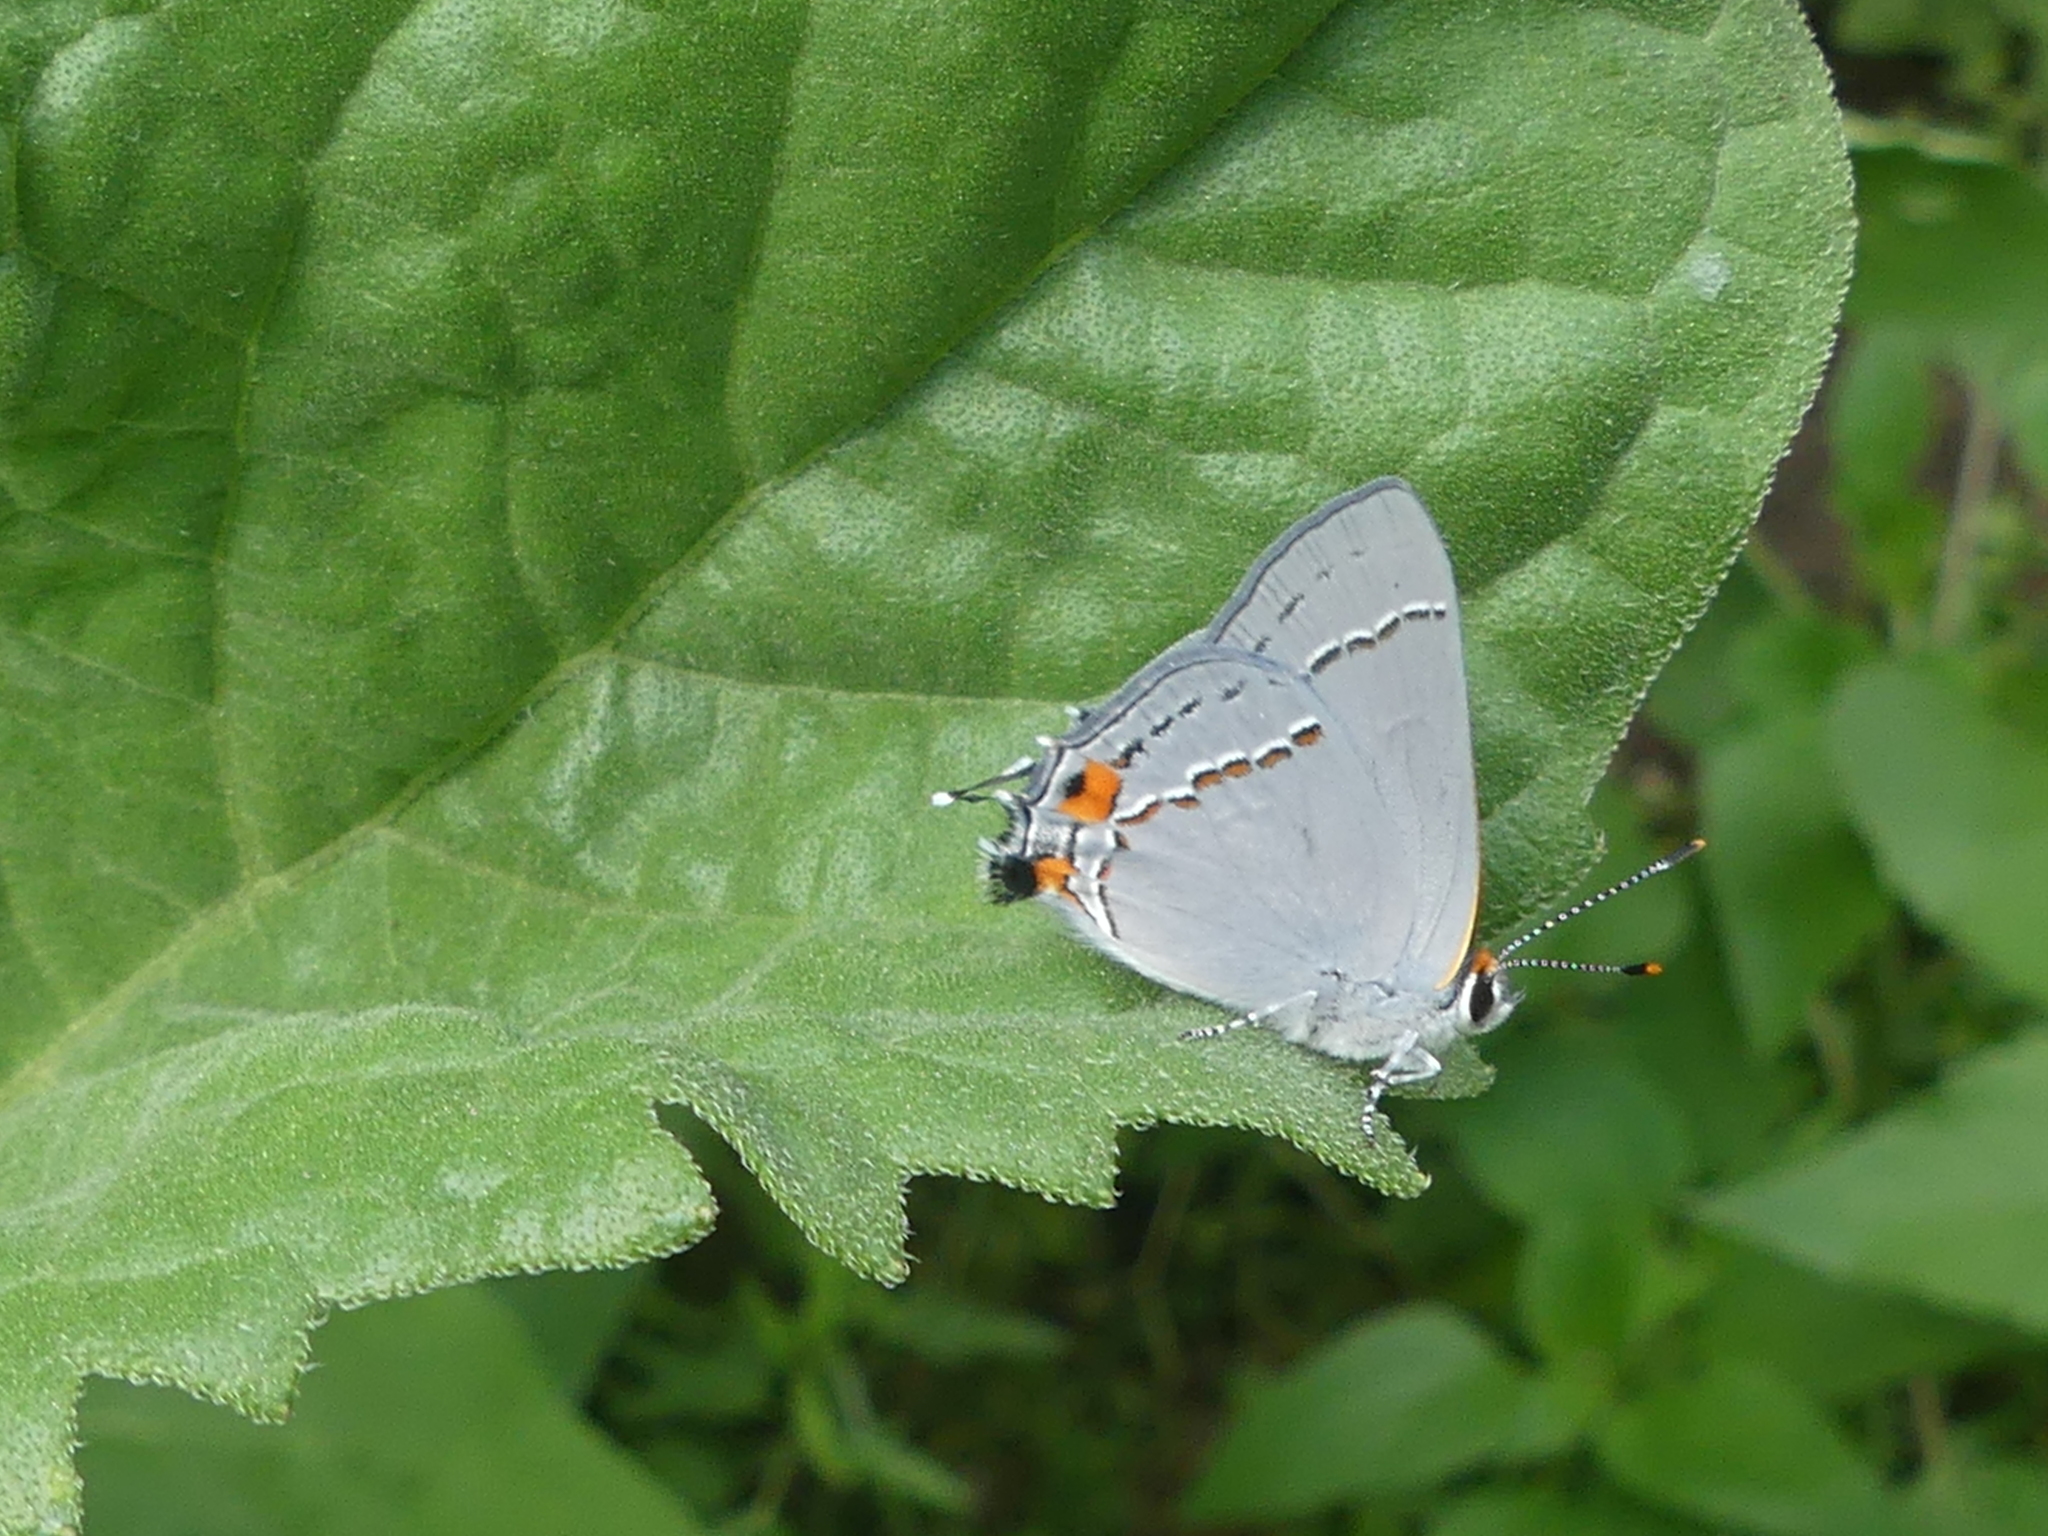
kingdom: Animalia
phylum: Arthropoda
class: Insecta
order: Lepidoptera
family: Lycaenidae
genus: Strymon
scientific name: Strymon melinus
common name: Gray hairstreak
